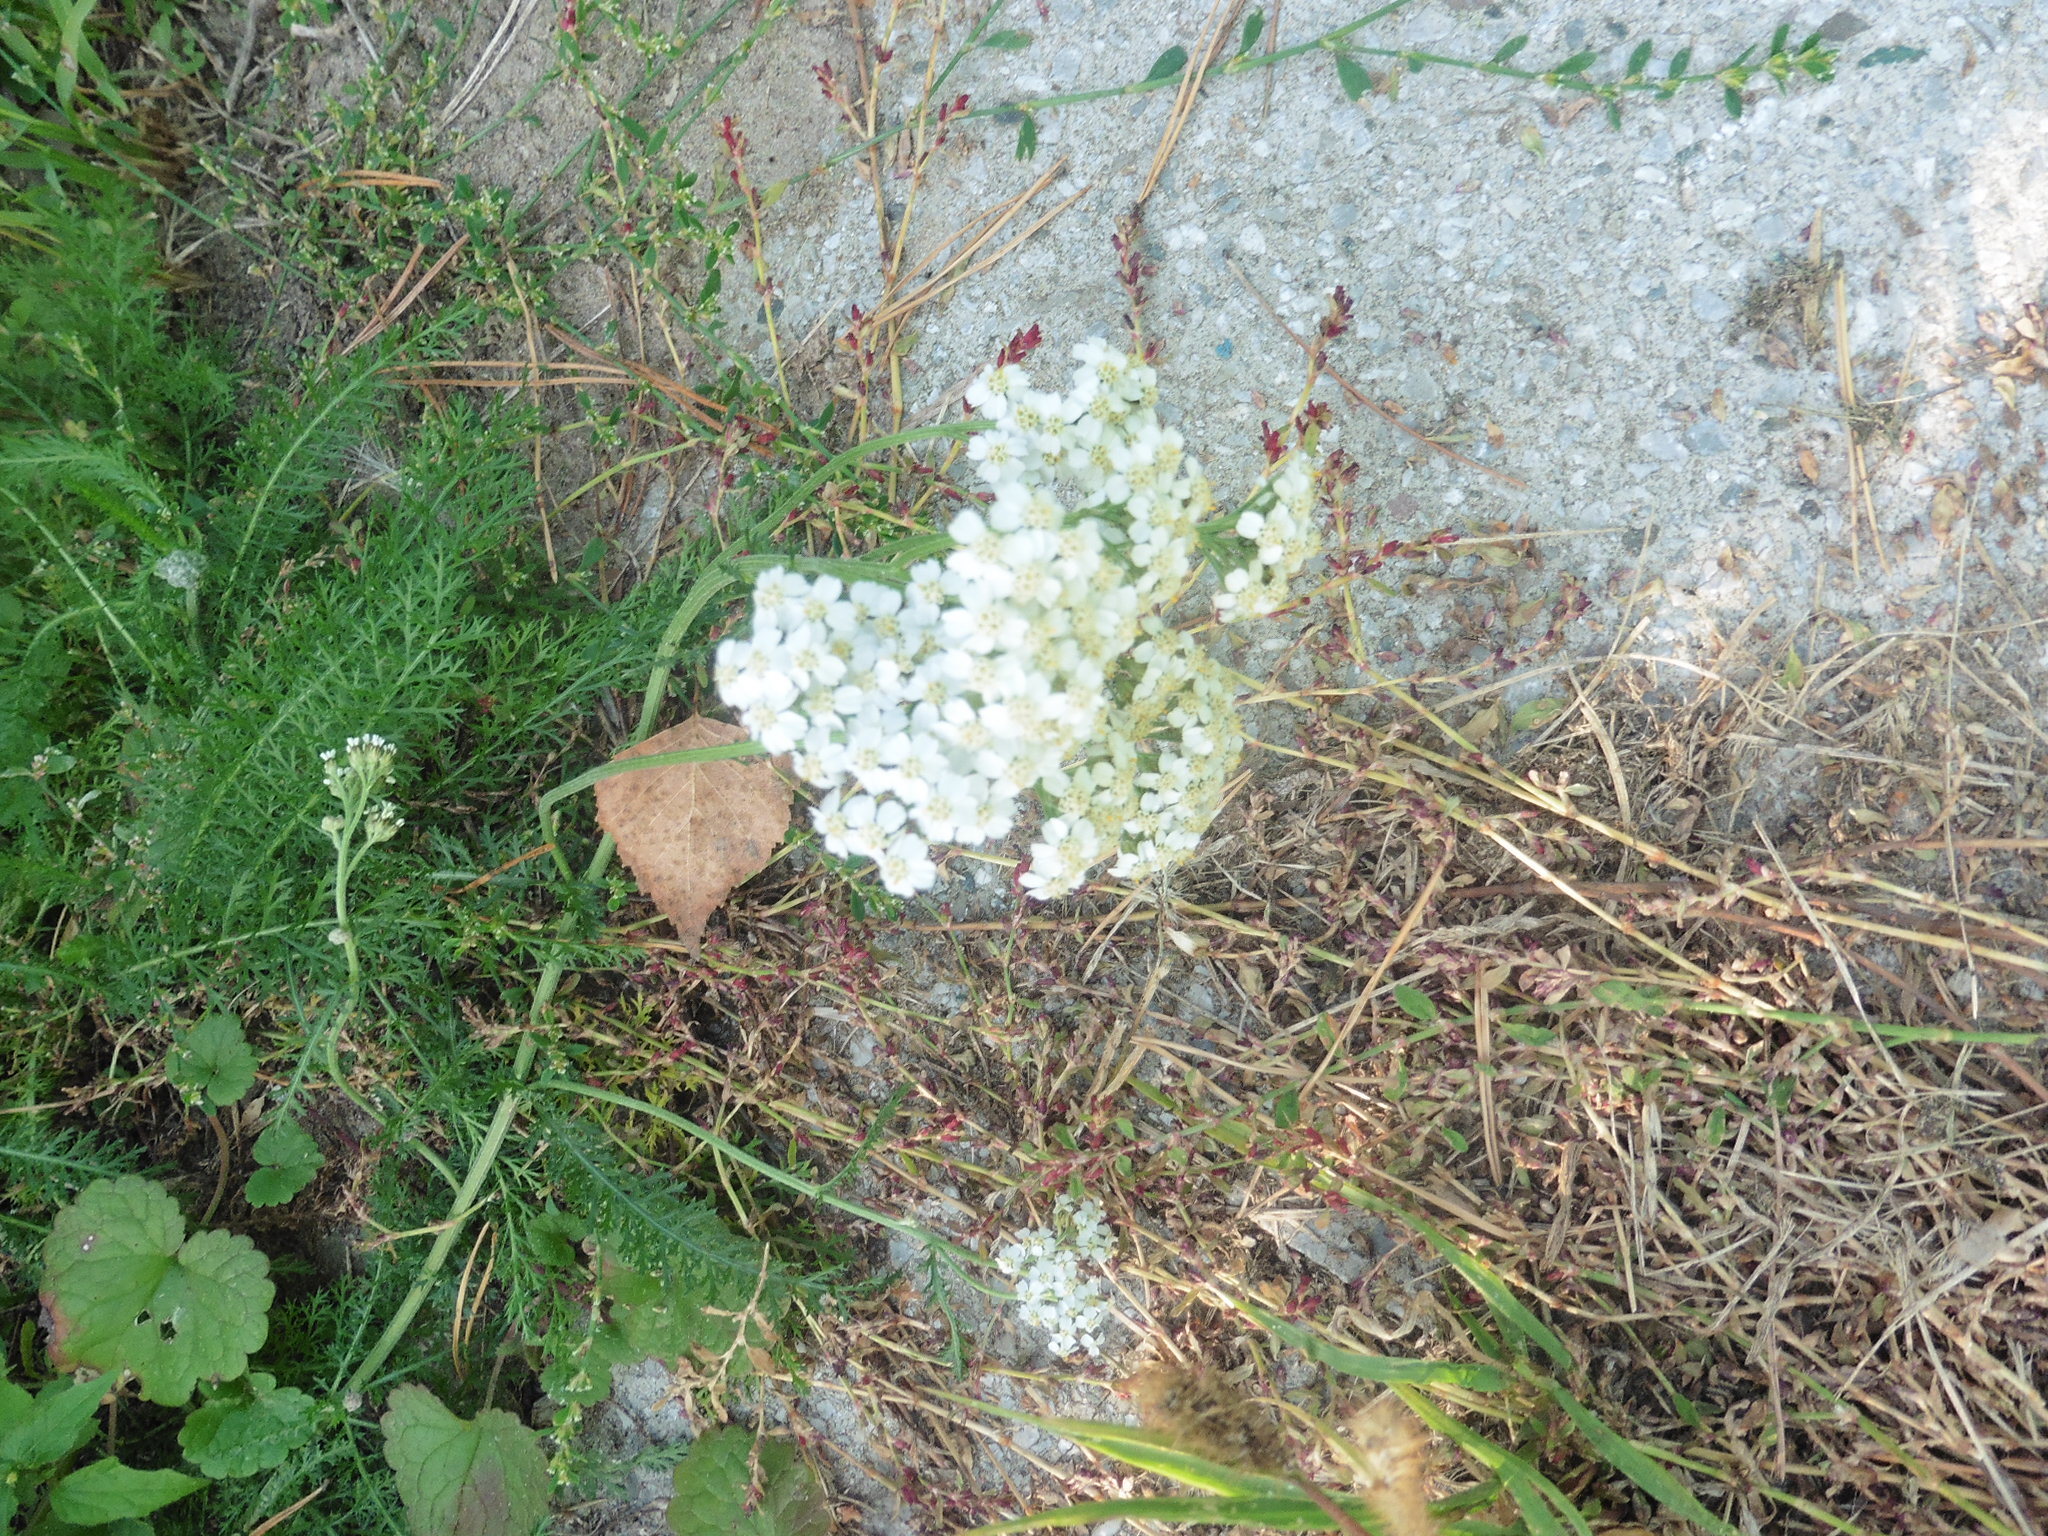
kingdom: Plantae
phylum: Tracheophyta
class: Magnoliopsida
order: Asterales
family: Asteraceae
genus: Achillea
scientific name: Achillea millefolium
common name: Yarrow
